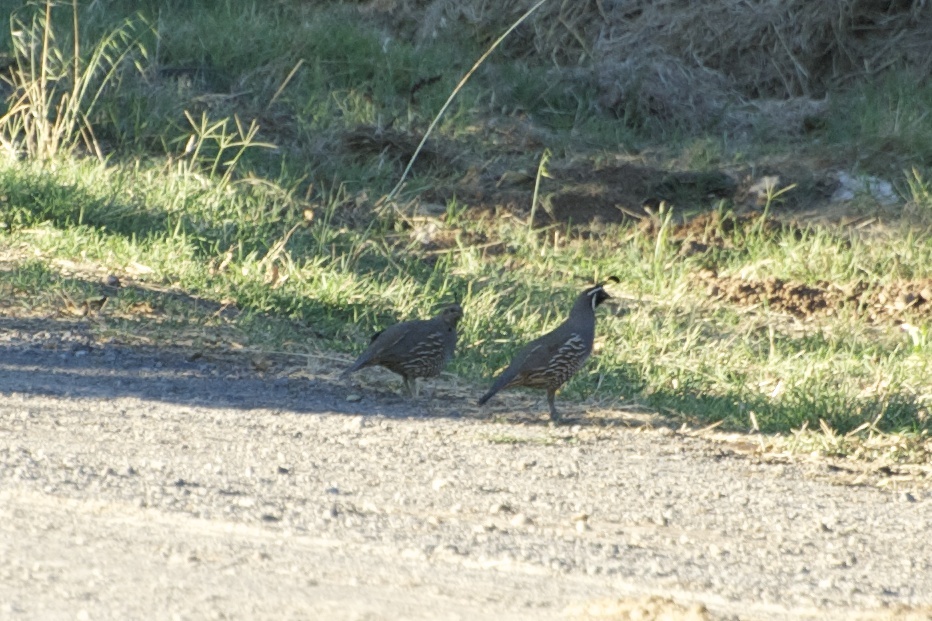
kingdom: Animalia
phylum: Chordata
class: Aves
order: Galliformes
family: Odontophoridae
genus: Callipepla
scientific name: Callipepla californica
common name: California quail
